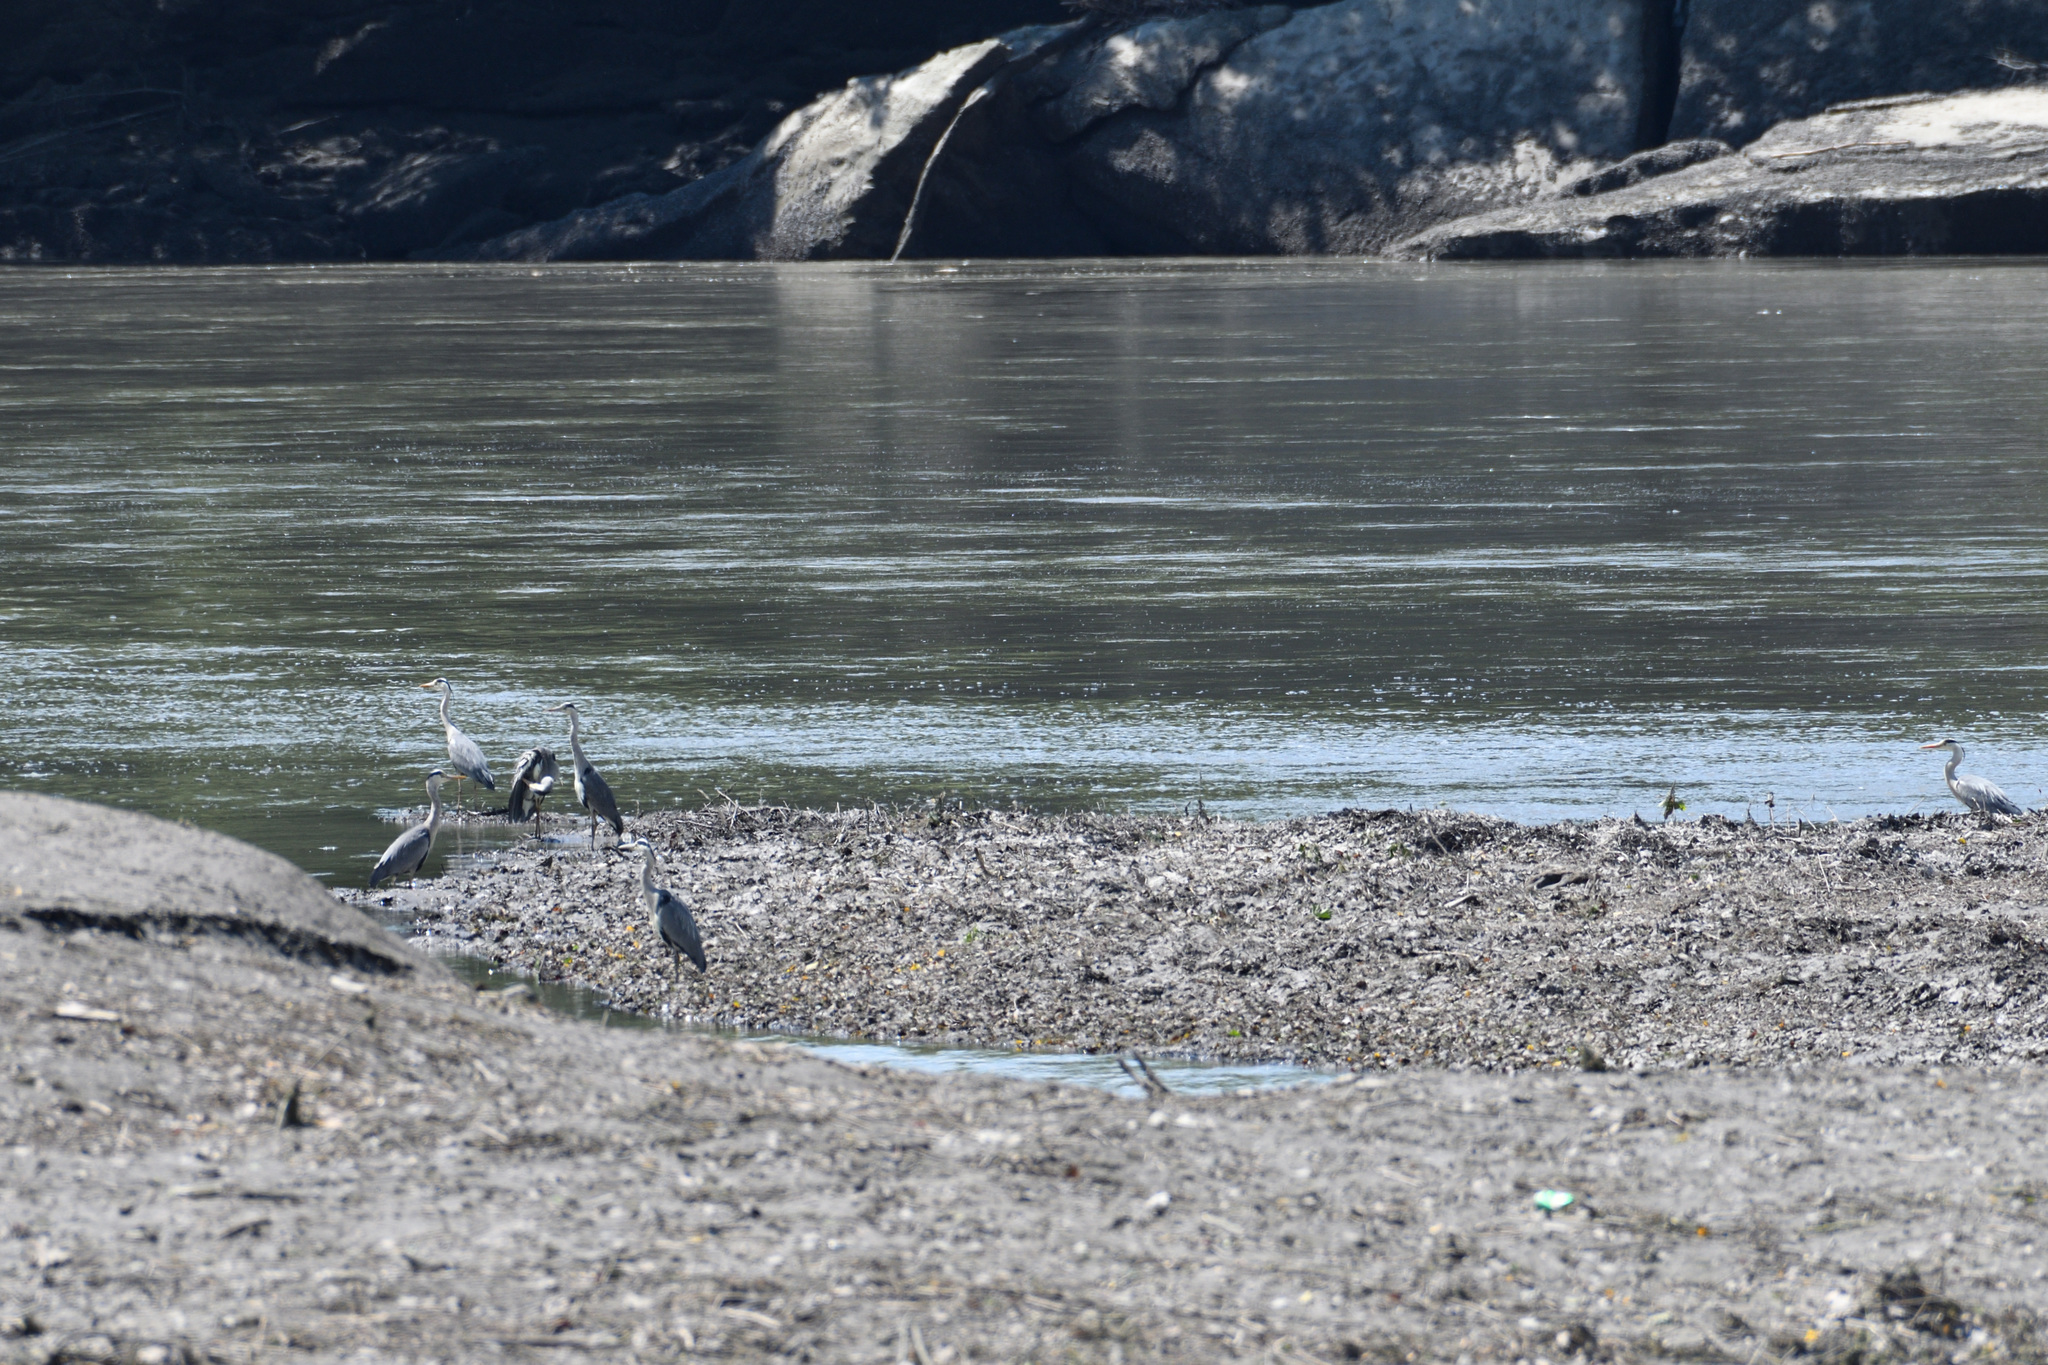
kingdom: Animalia
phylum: Chordata
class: Aves
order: Pelecaniformes
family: Ardeidae
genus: Ardea
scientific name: Ardea cinerea
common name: Grey heron
